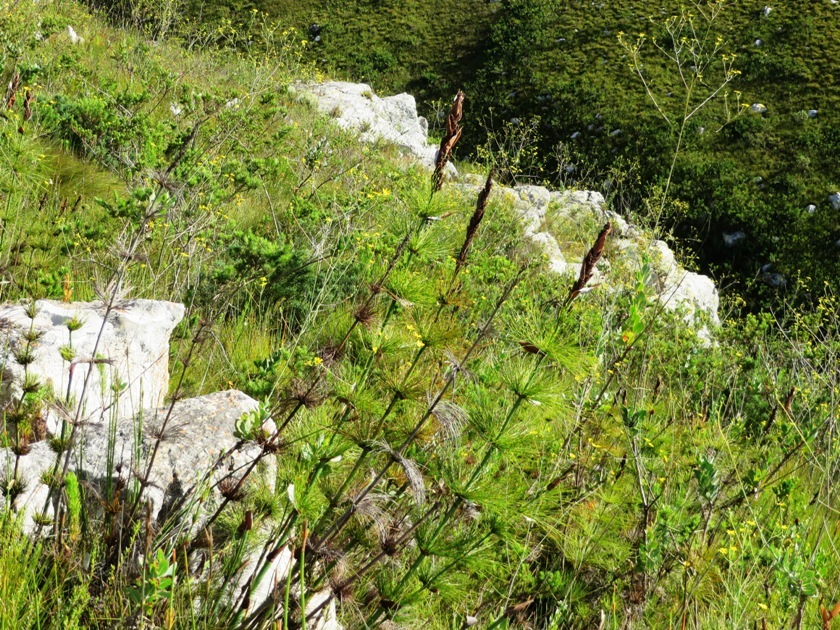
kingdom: Plantae
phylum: Tracheophyta
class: Liliopsida
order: Poales
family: Restionaceae
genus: Elegia
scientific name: Elegia capensis
